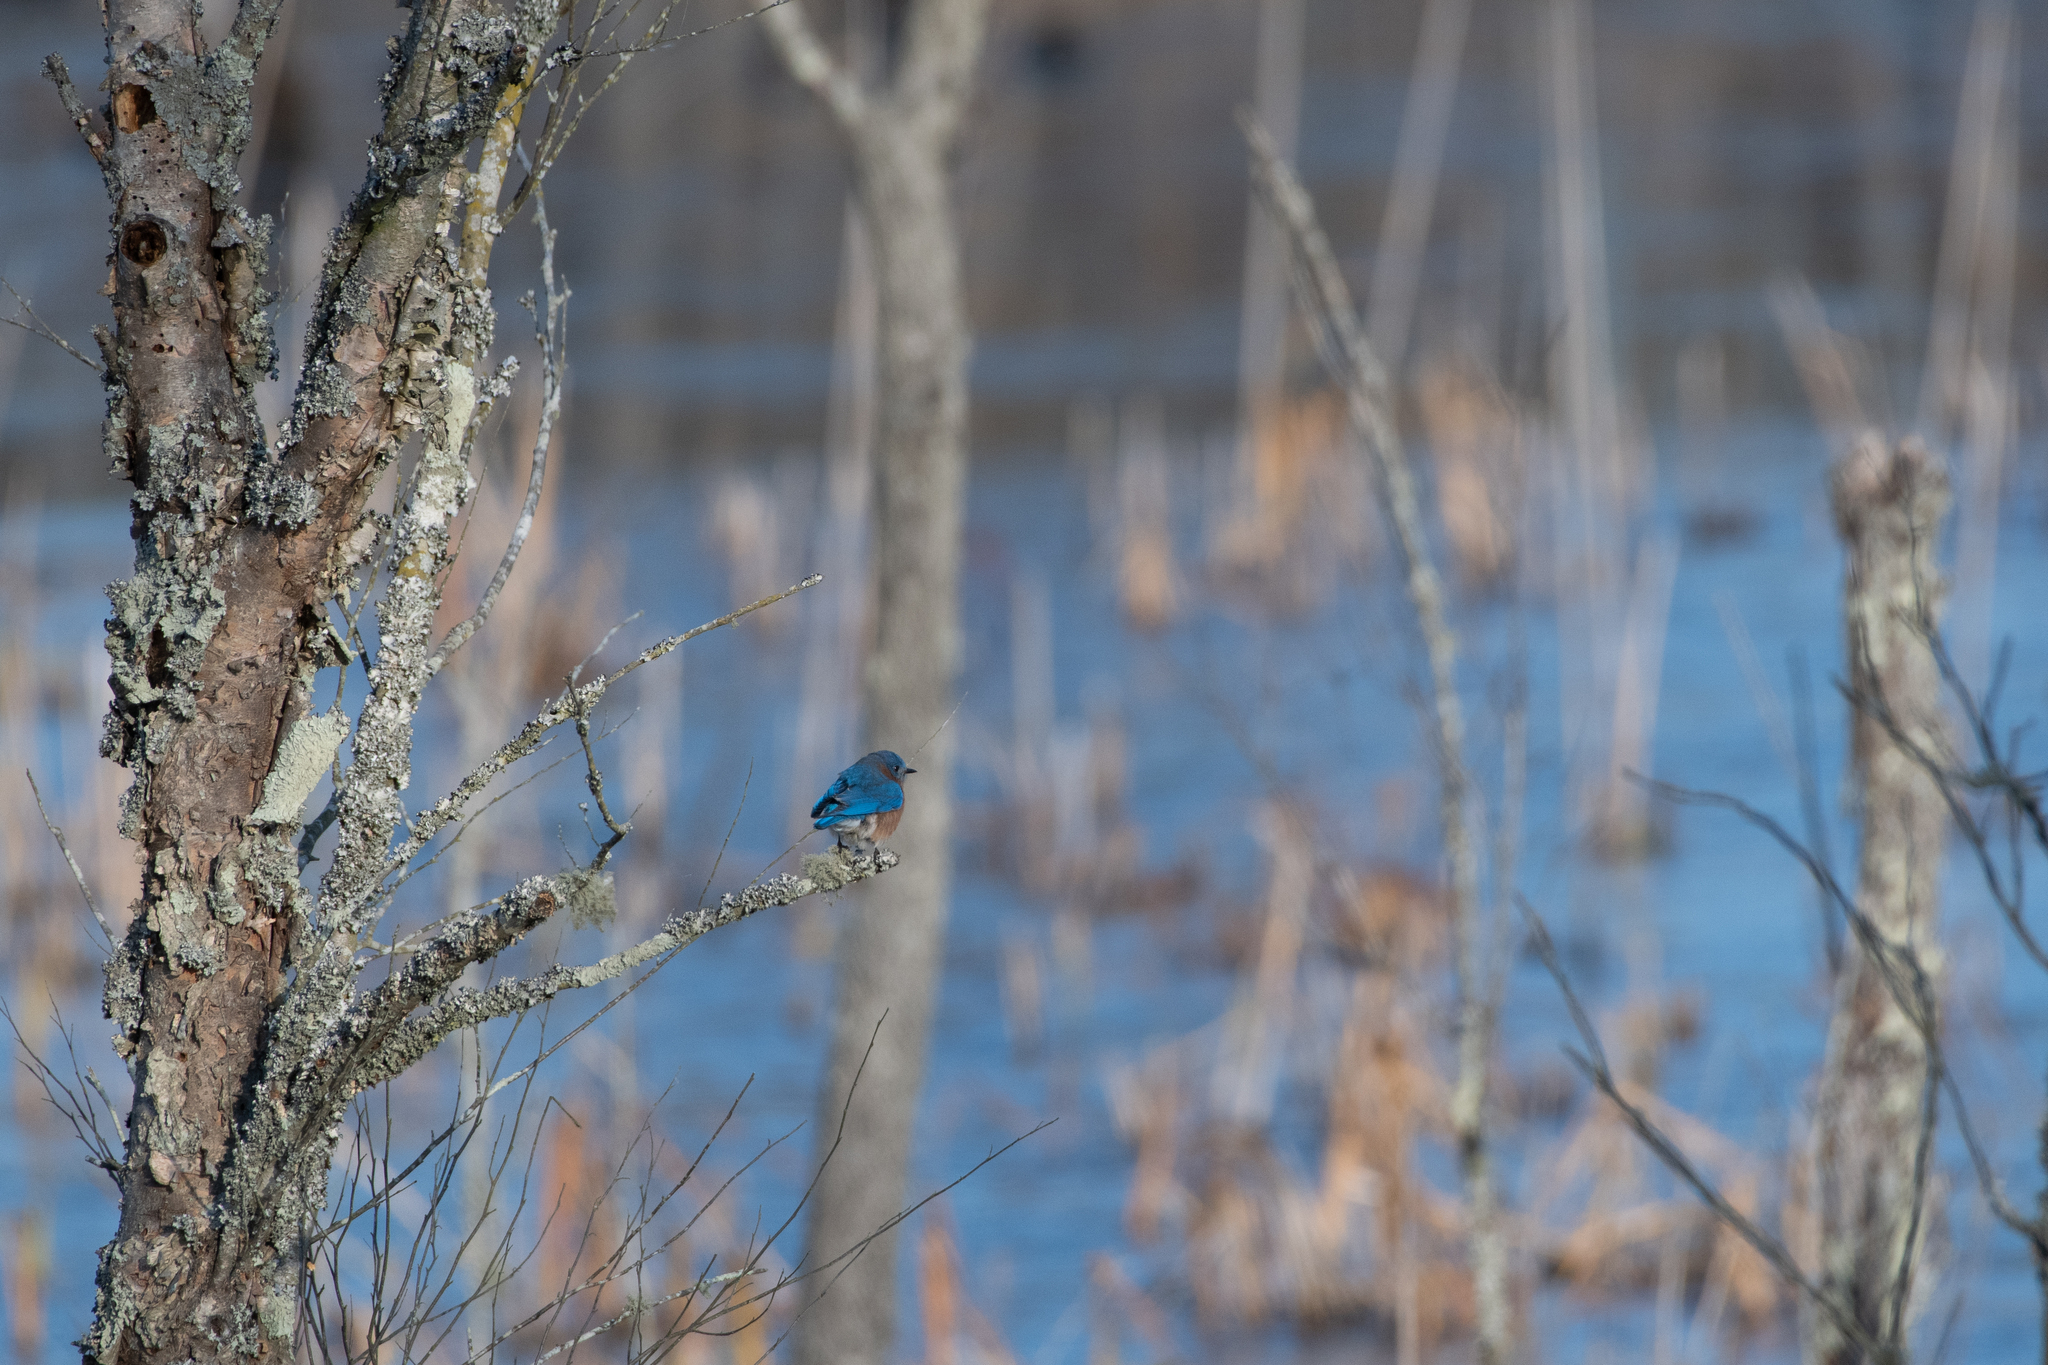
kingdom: Animalia
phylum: Chordata
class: Aves
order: Passeriformes
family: Turdidae
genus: Sialia
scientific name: Sialia sialis
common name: Eastern bluebird
